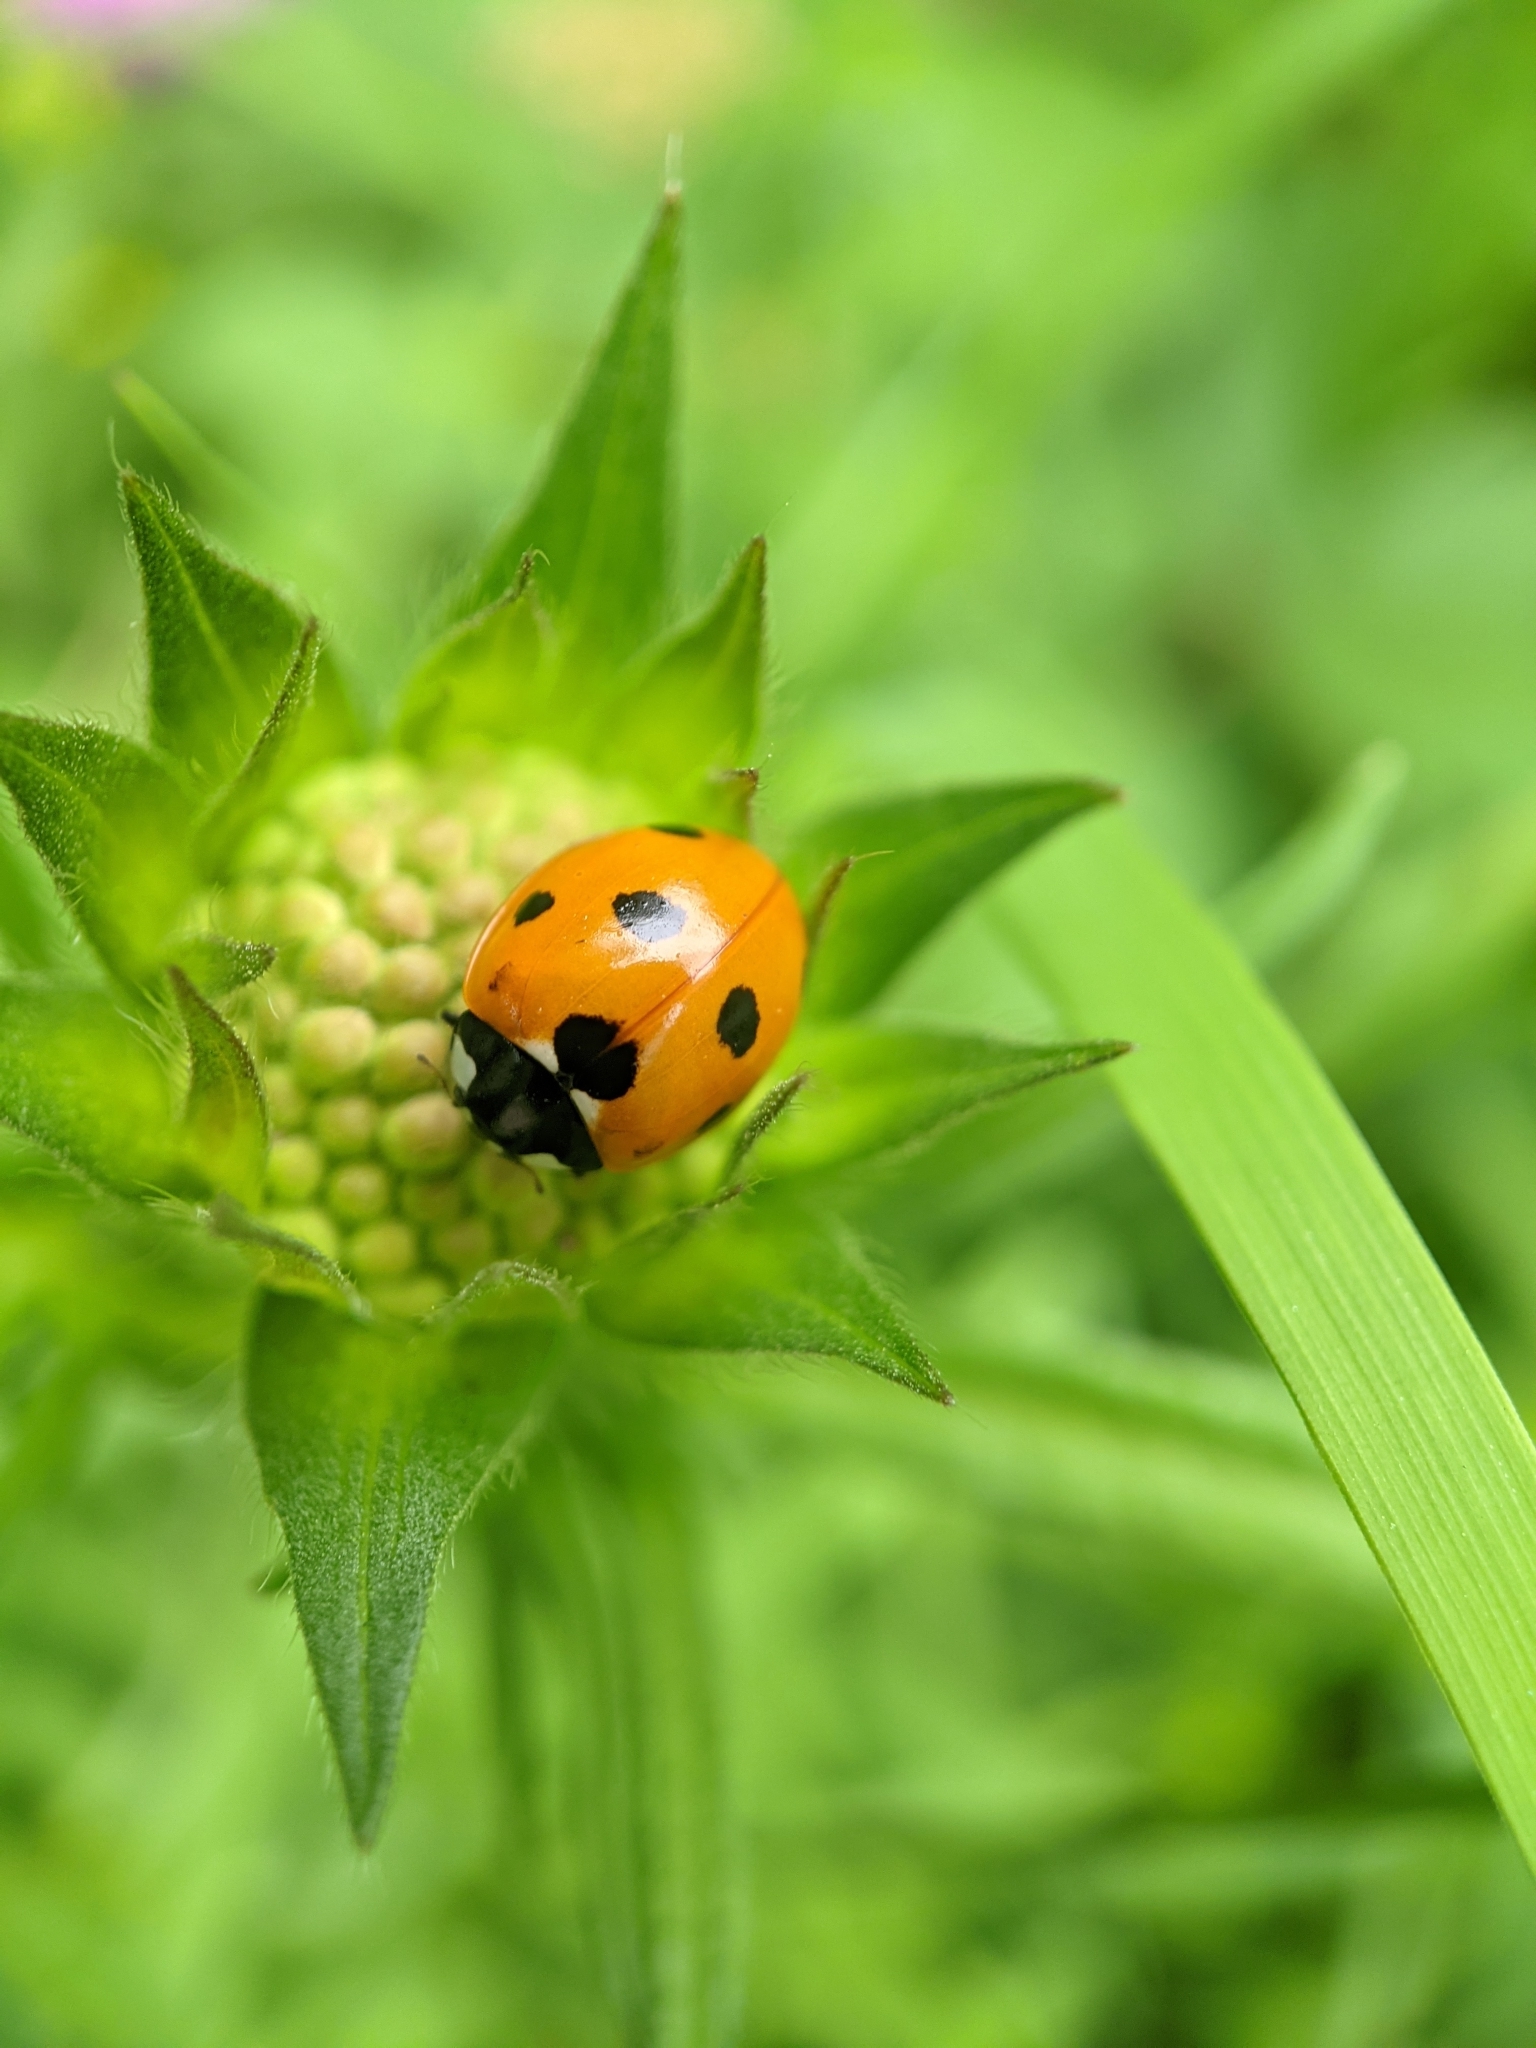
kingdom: Animalia
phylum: Arthropoda
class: Insecta
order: Coleoptera
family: Coccinellidae
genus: Coccinella
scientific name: Coccinella septempunctata
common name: Sevenspotted lady beetle
